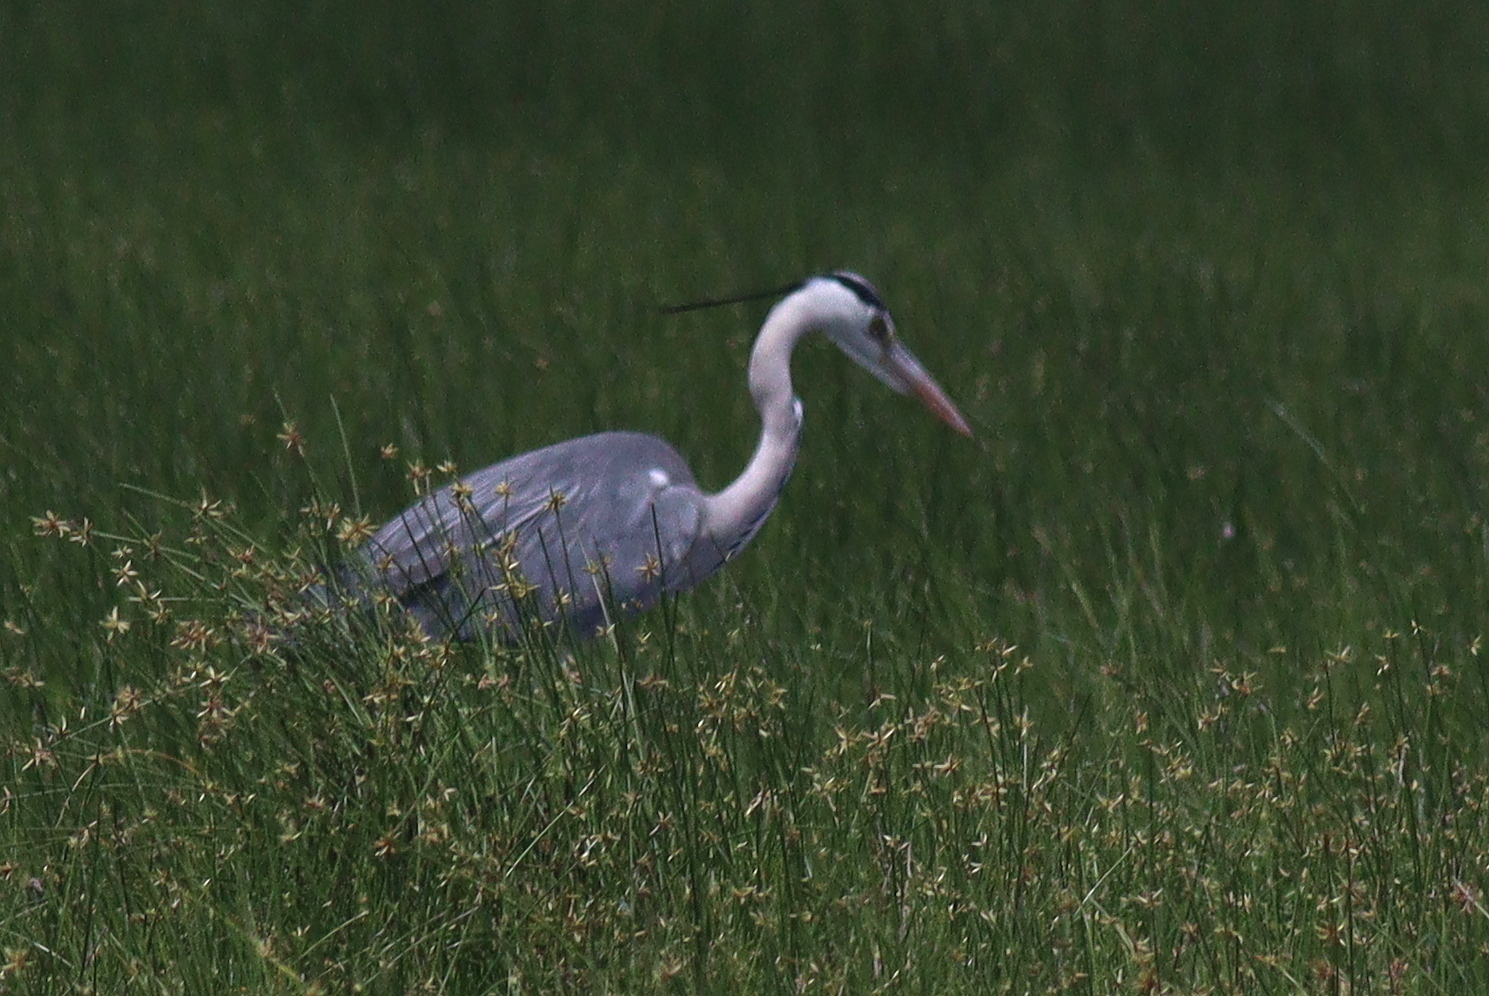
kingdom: Animalia
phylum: Chordata
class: Aves
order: Pelecaniformes
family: Ardeidae
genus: Ardea
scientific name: Ardea cinerea
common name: Grey heron
